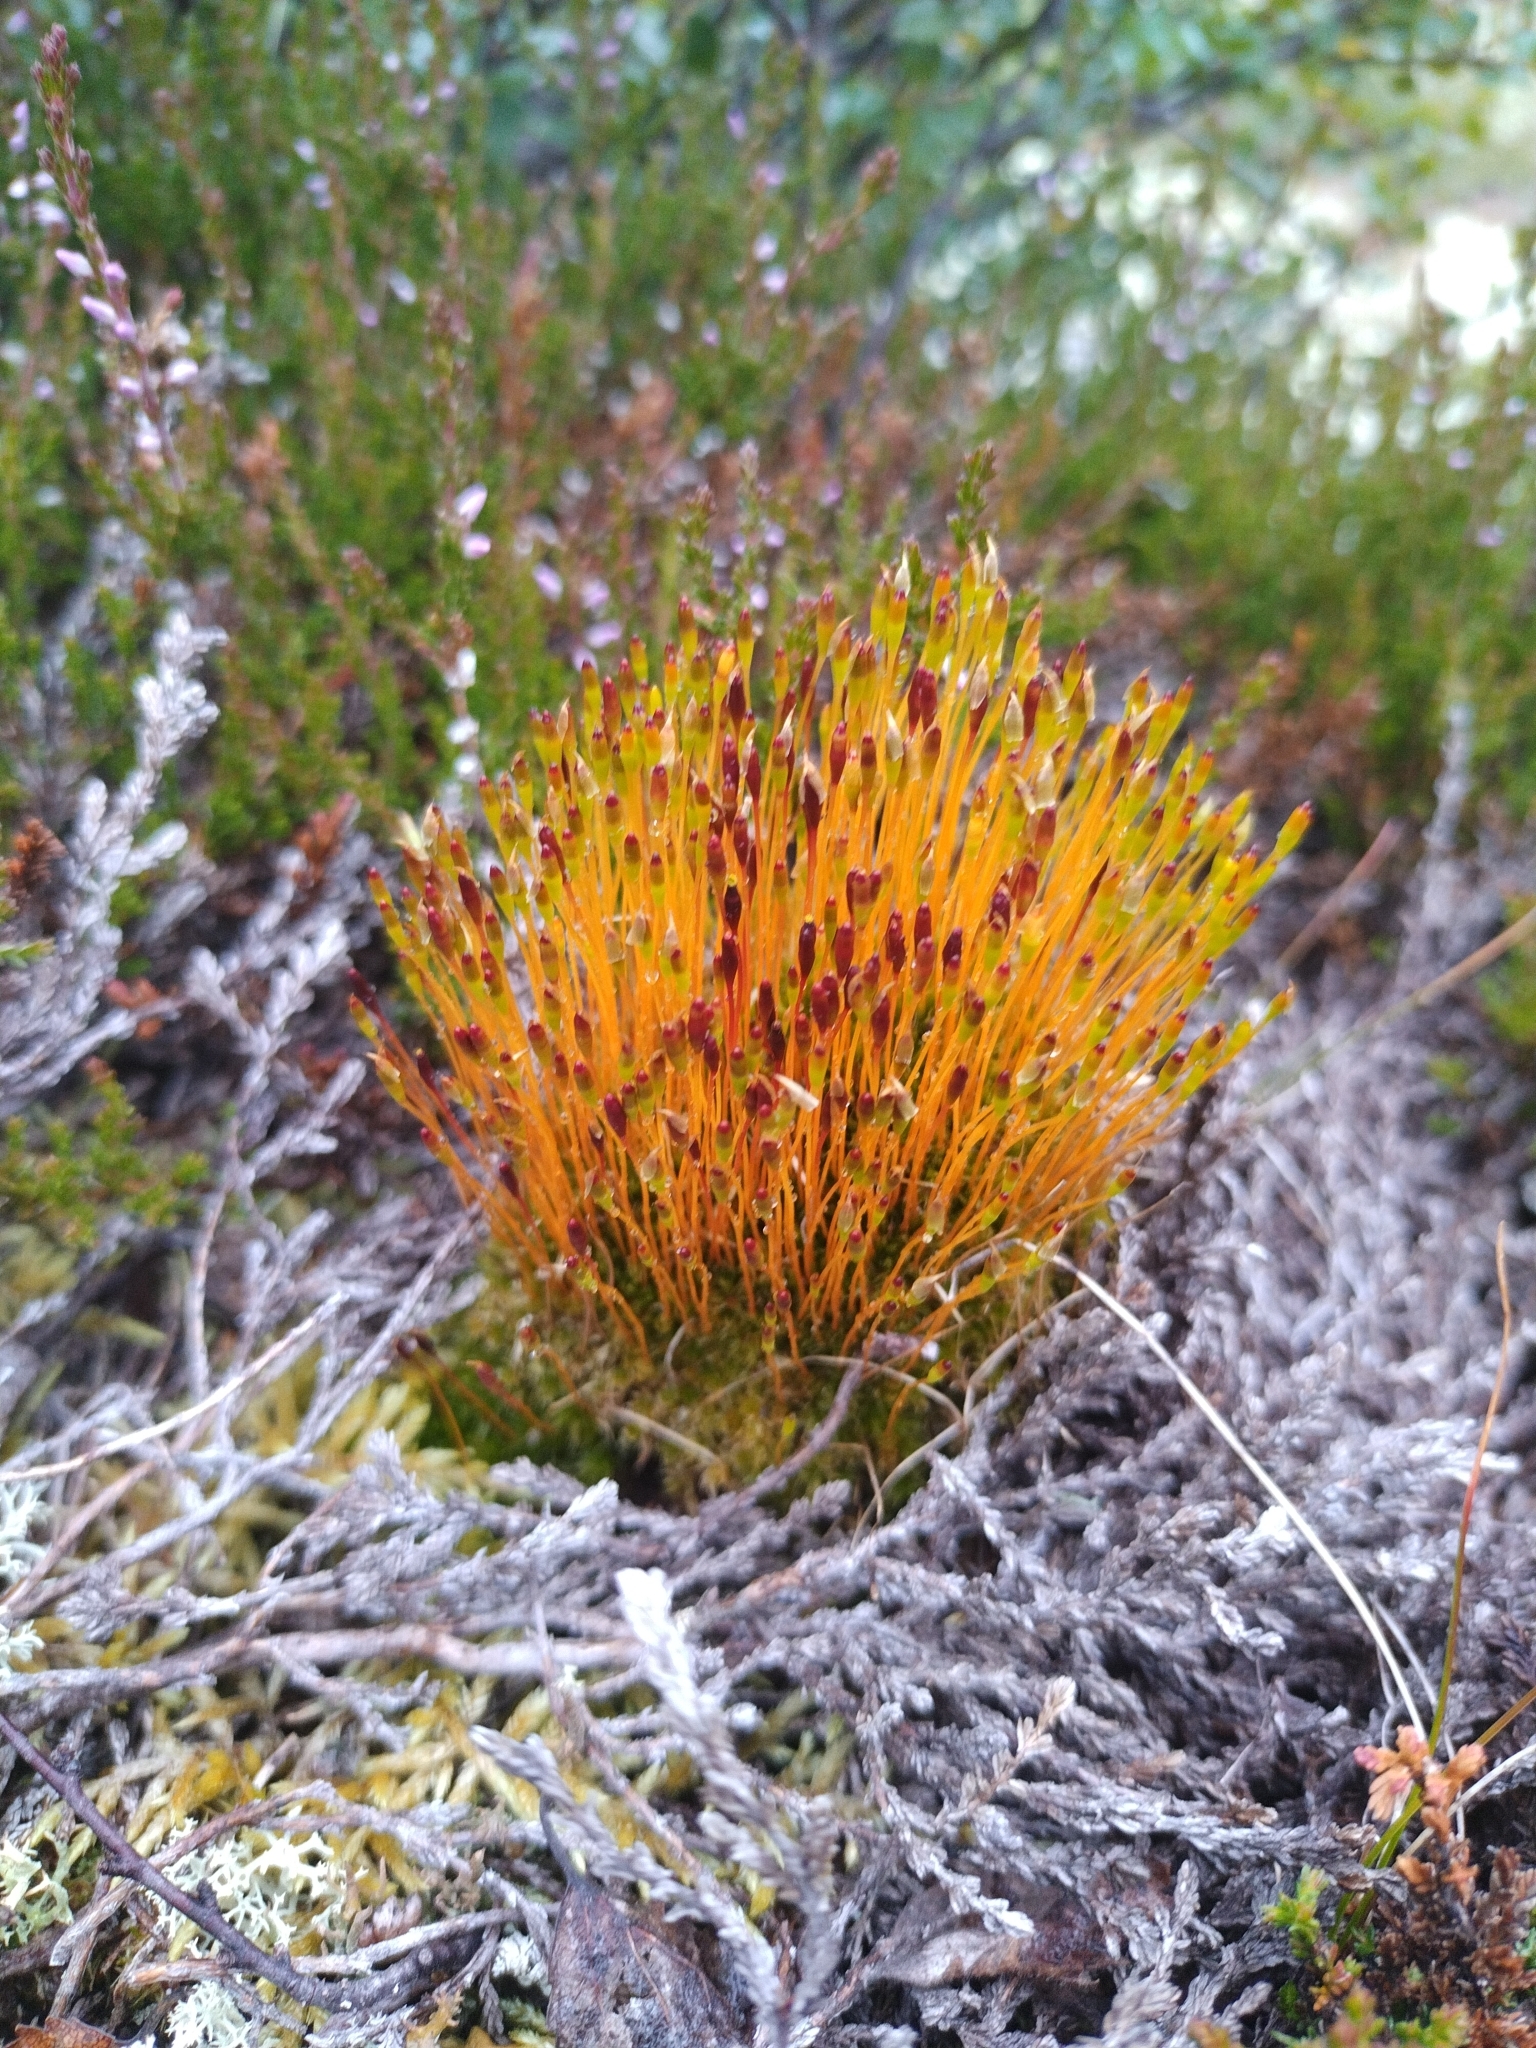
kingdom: Plantae
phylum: Bryophyta
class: Bryopsida
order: Splachnales
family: Splachnaceae
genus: Tetraplodon
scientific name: Tetraplodon mnioides
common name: Entire-leaved nitrogen moss
